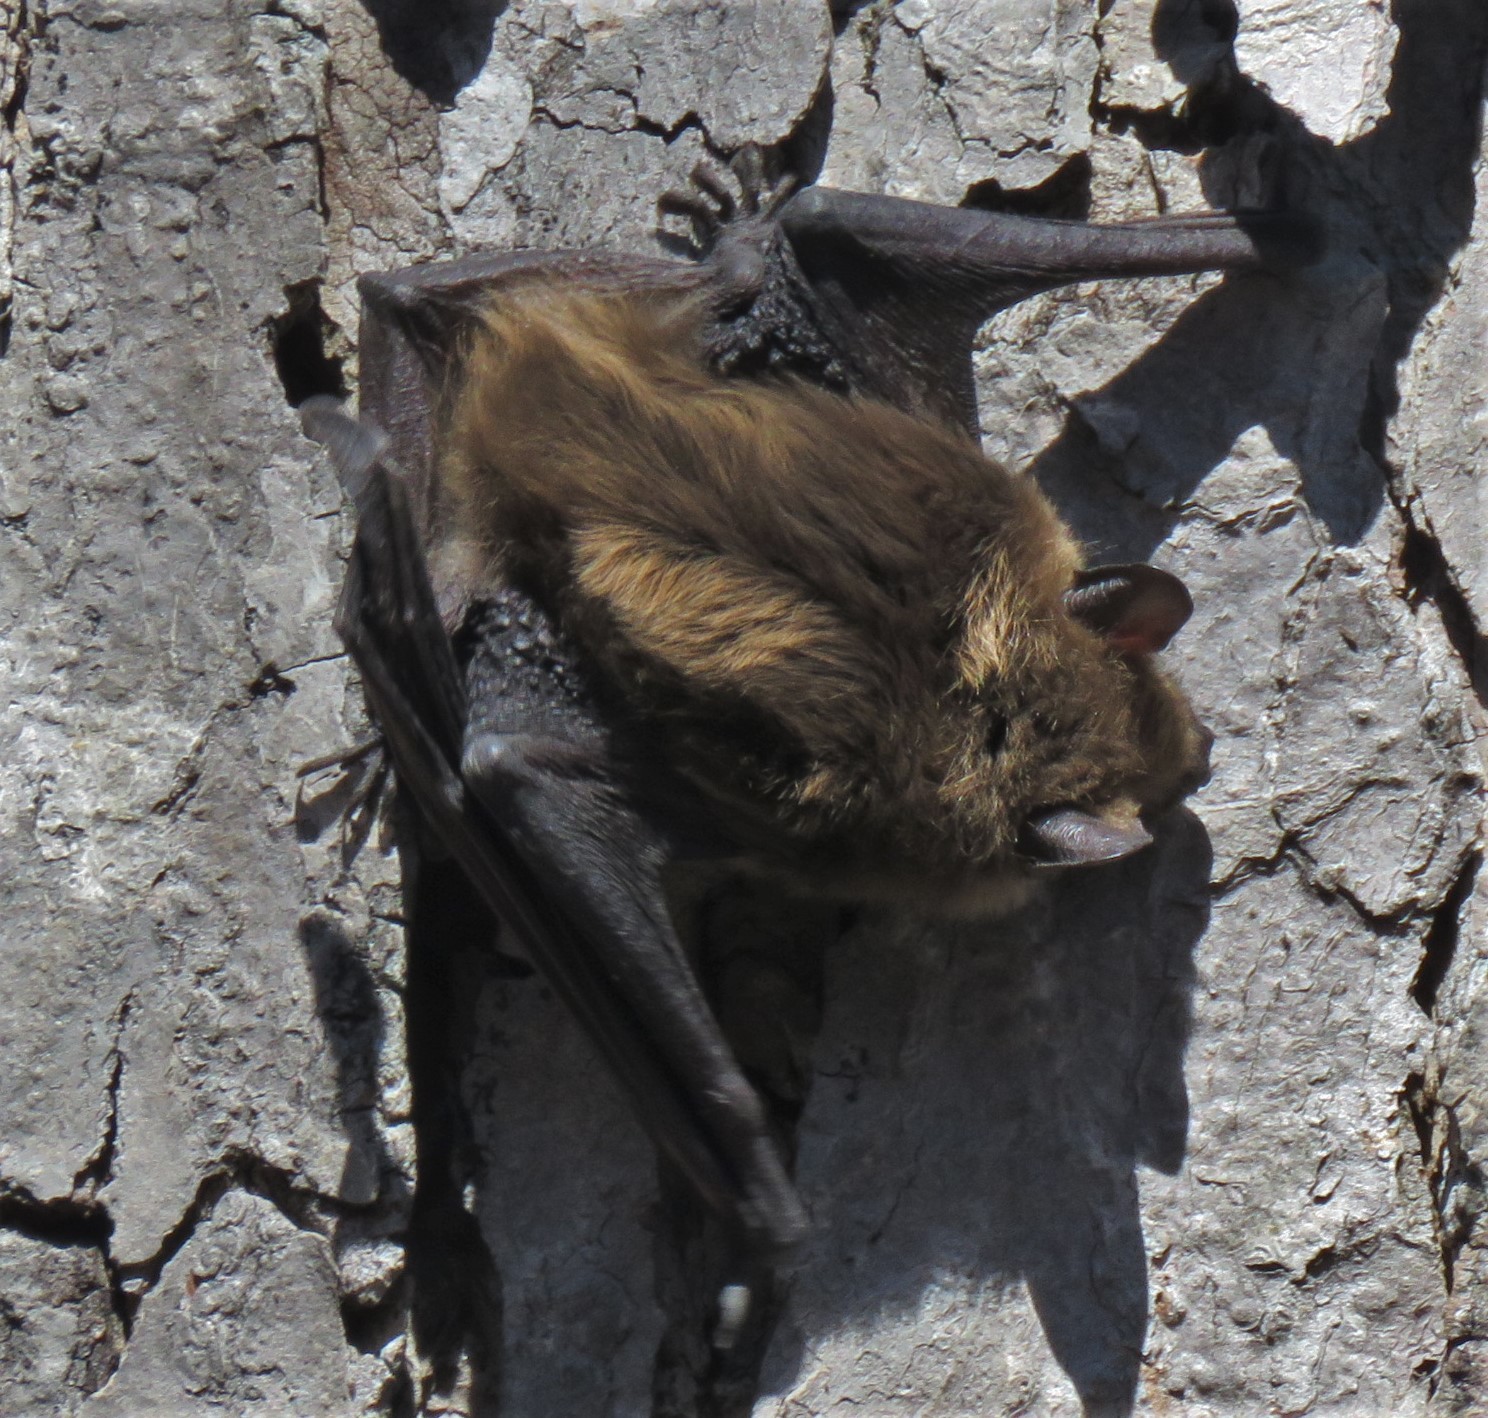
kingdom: Animalia
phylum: Chordata
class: Mammalia
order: Chiroptera
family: Vespertilionidae
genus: Eptesicus
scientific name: Eptesicus fuscus
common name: Big brown bat
